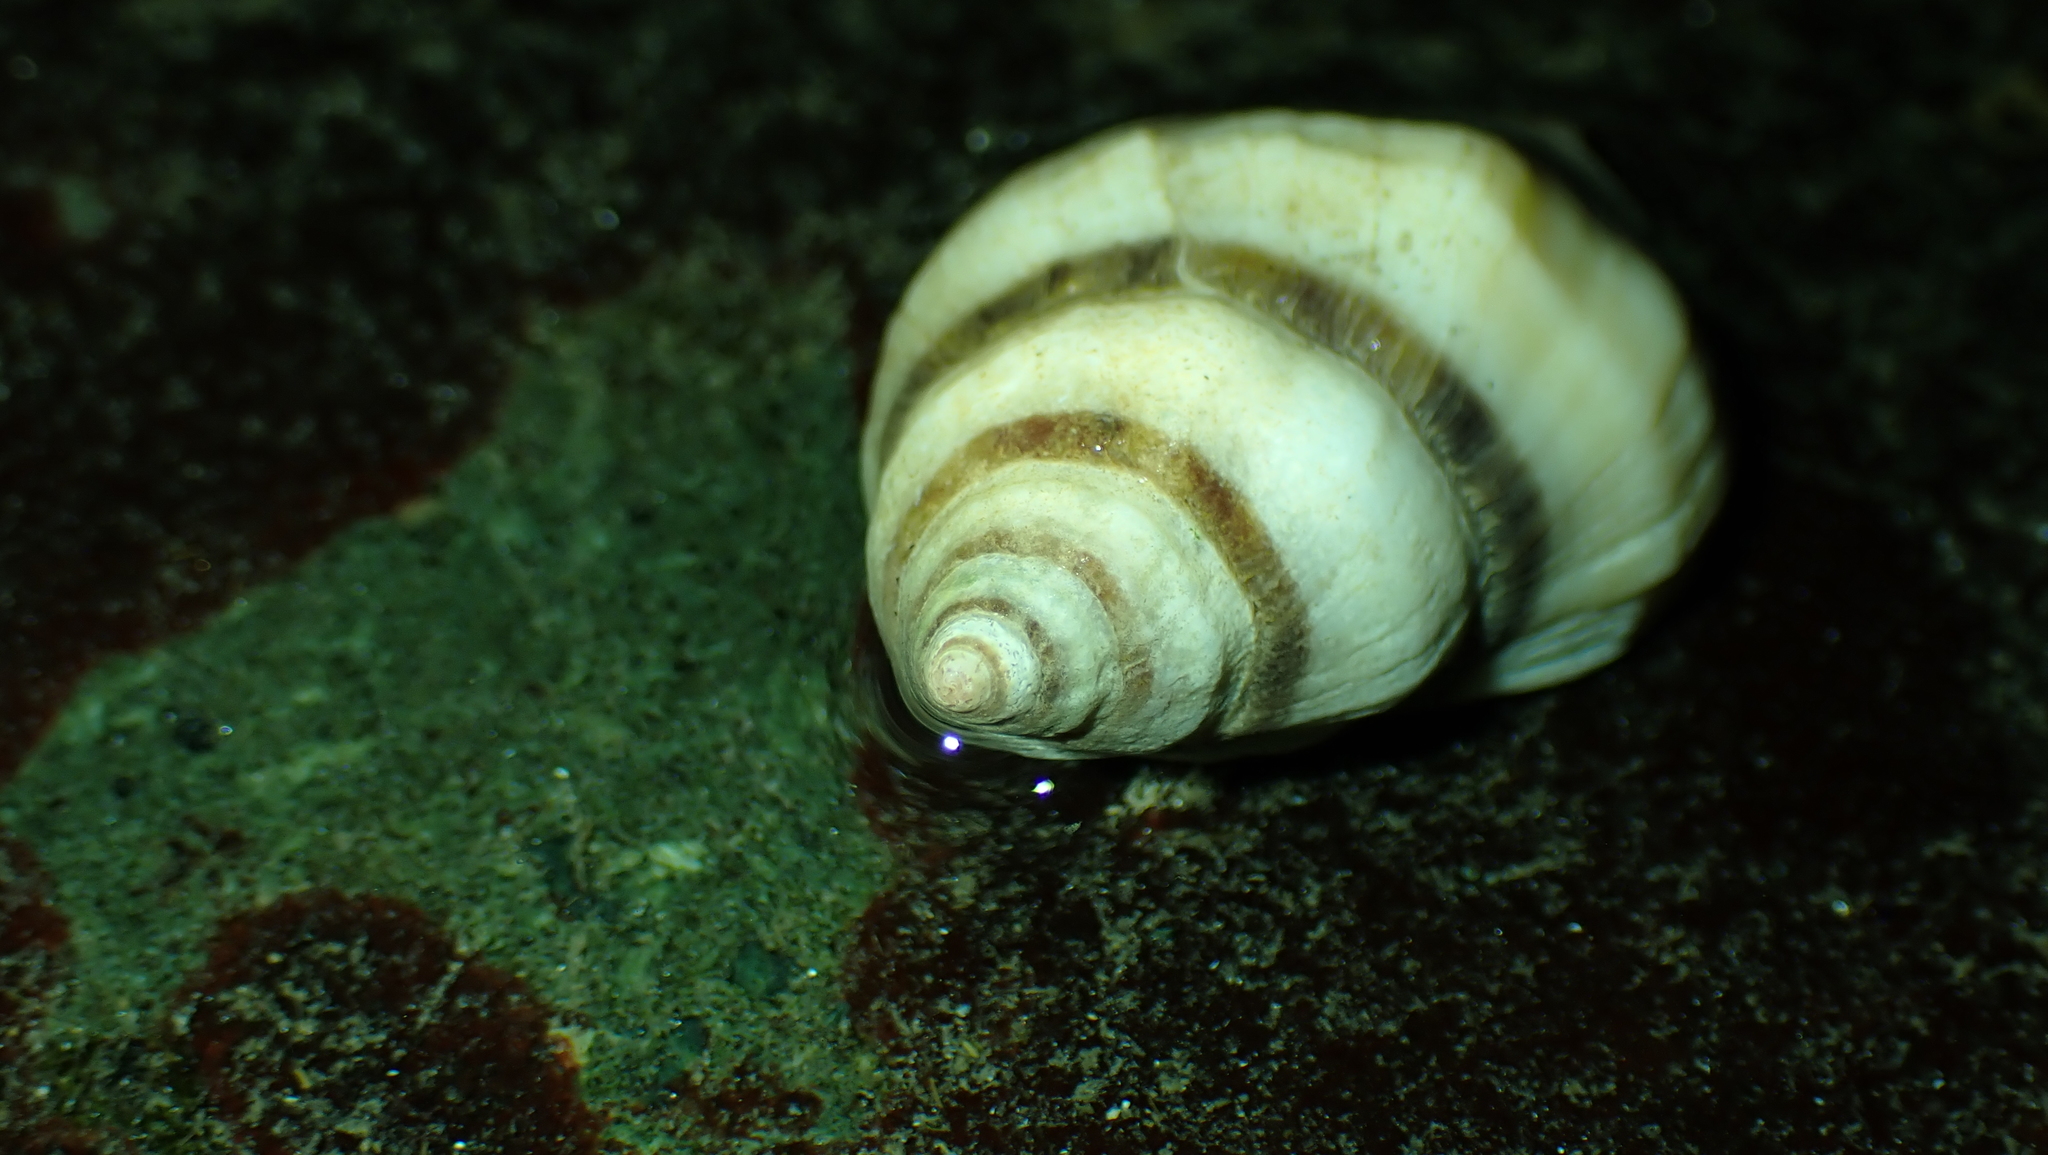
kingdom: Animalia
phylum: Mollusca
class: Gastropoda
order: Neogastropoda
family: Muricidae
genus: Nucella
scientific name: Nucella lamellosa
